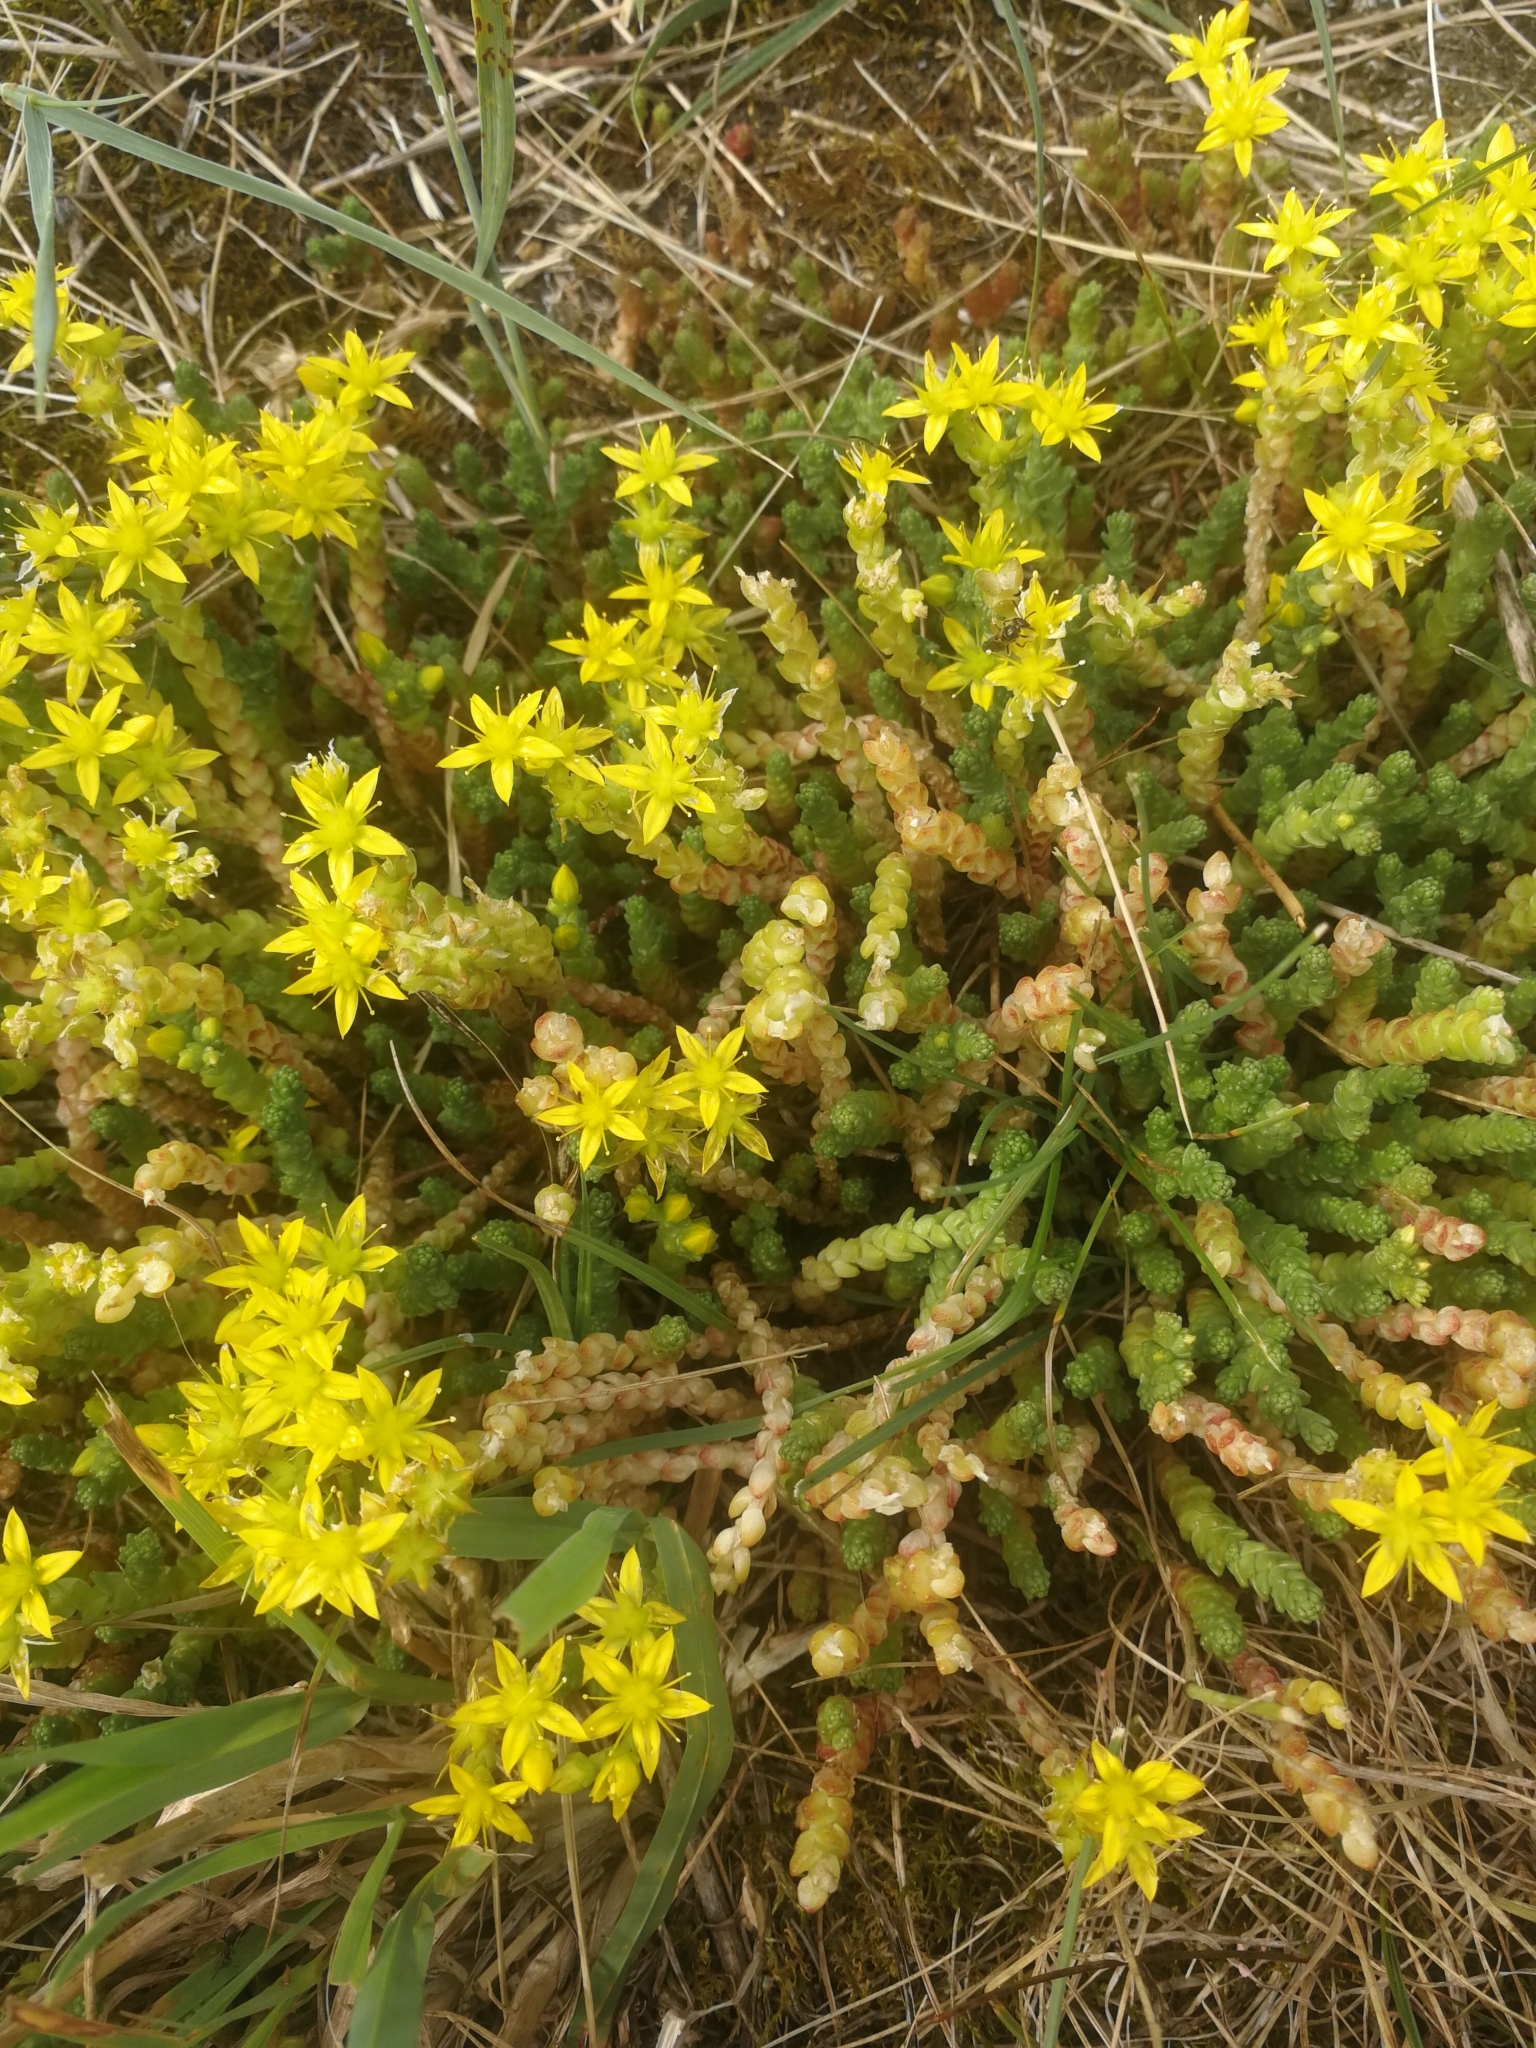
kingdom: Plantae
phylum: Tracheophyta
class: Magnoliopsida
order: Saxifragales
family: Crassulaceae
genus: Sedum
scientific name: Sedum acre
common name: Biting stonecrop
